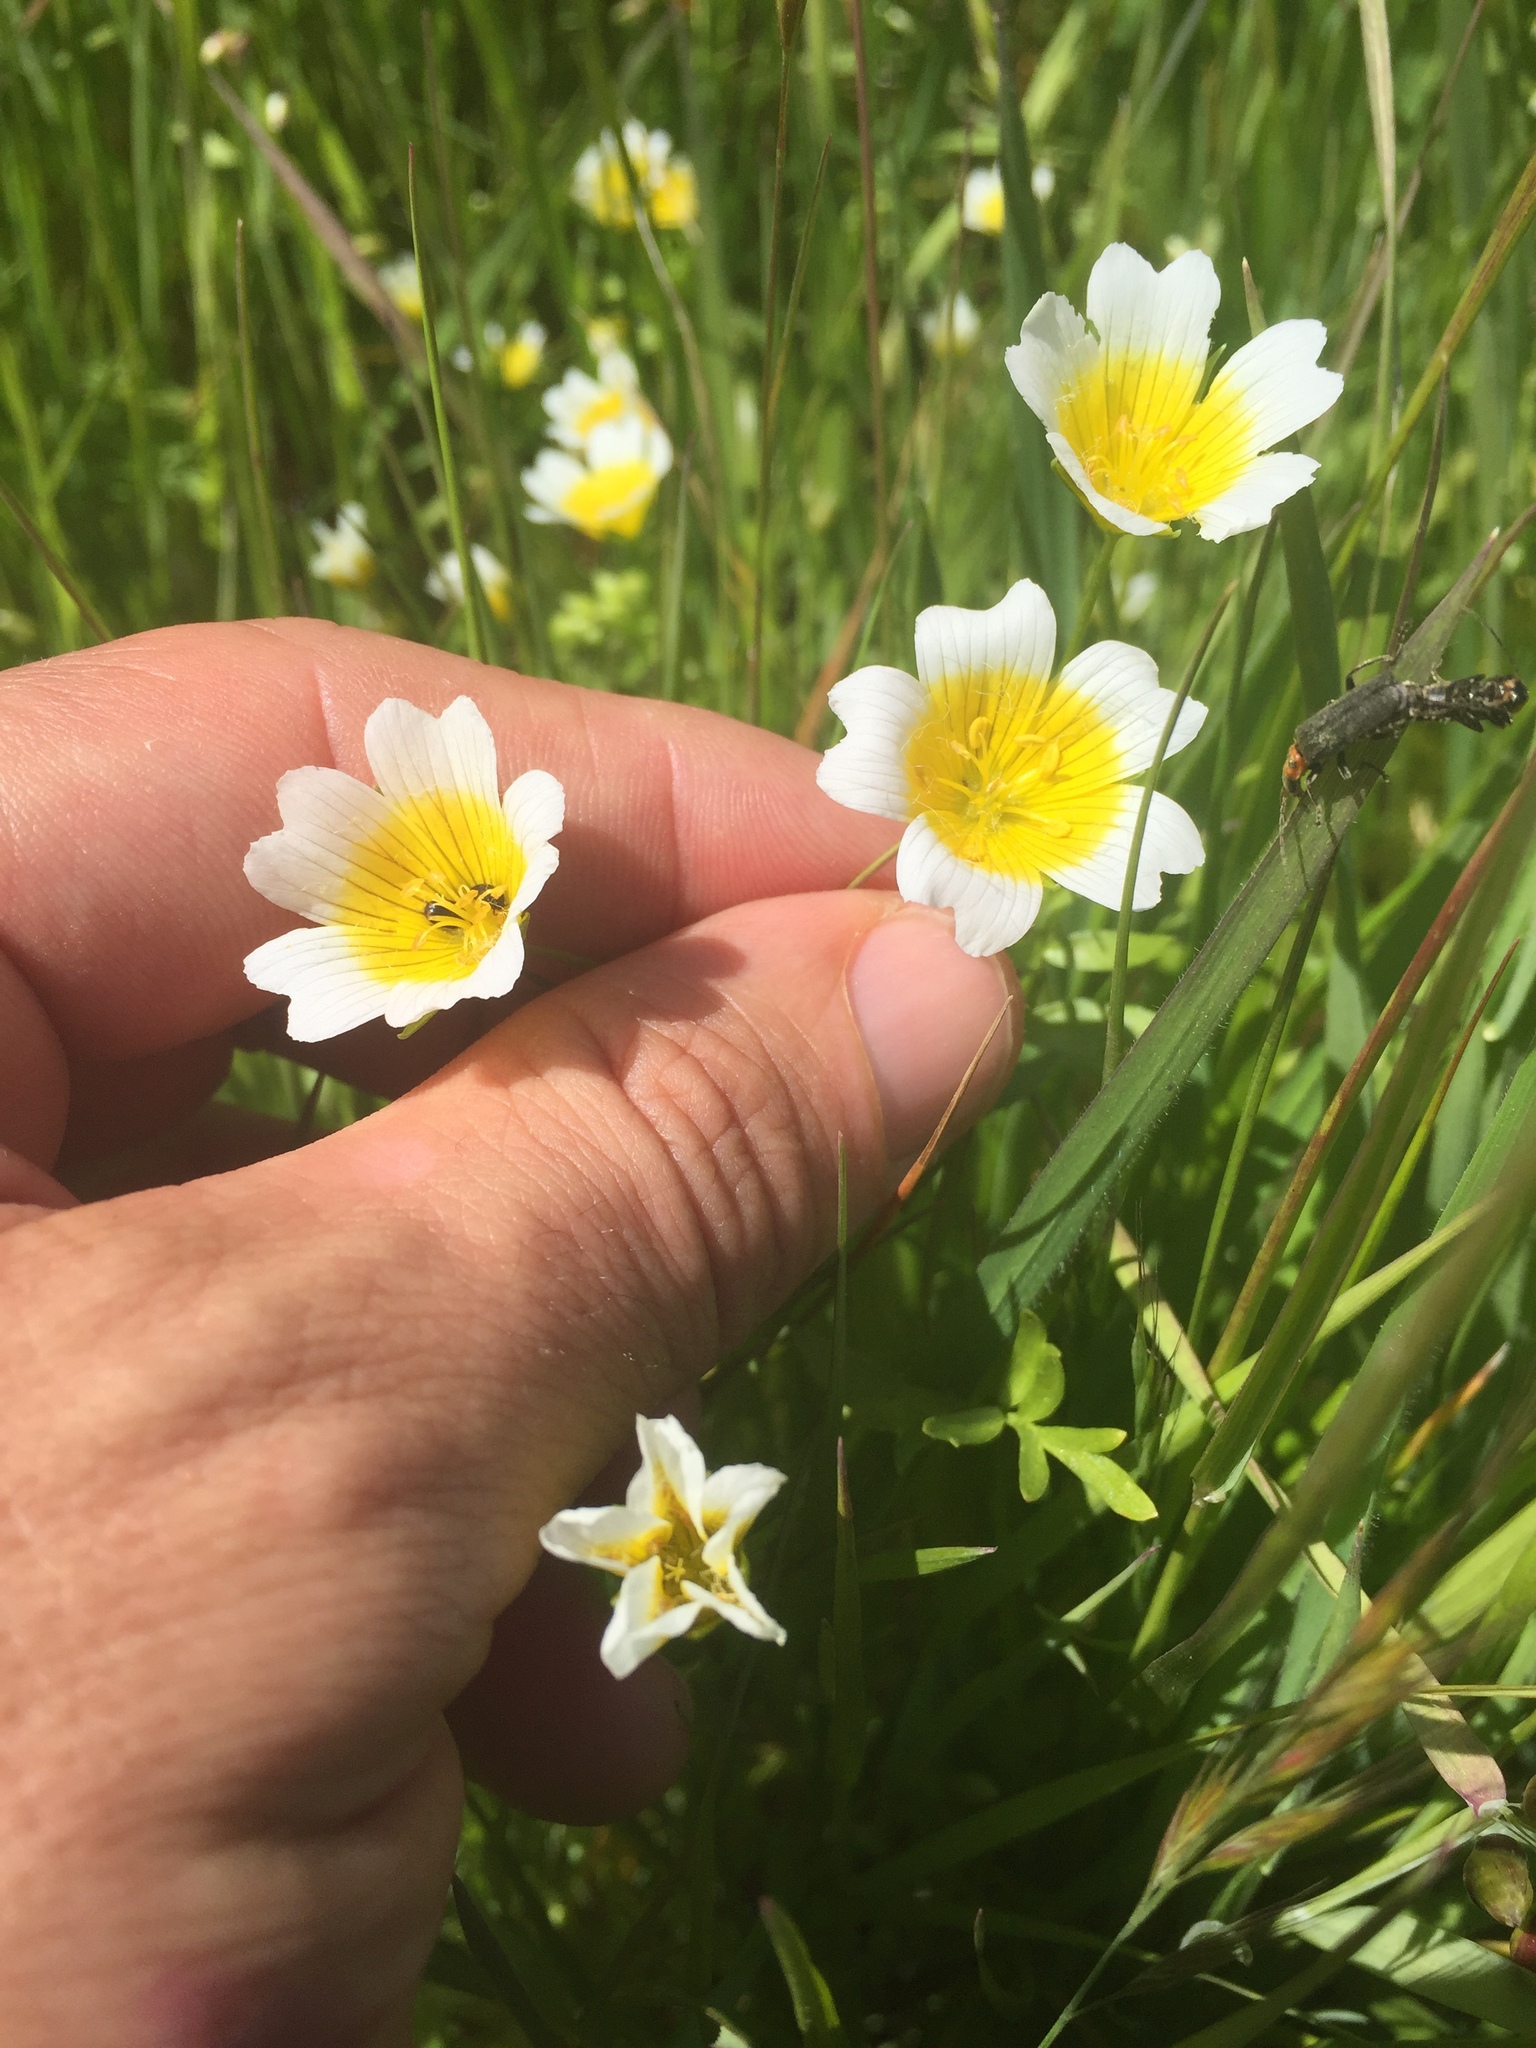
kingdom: Plantae
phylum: Tracheophyta
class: Magnoliopsida
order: Brassicales
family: Limnanthaceae
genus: Limnanthes
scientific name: Limnanthes douglasii
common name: Meadow-foam
